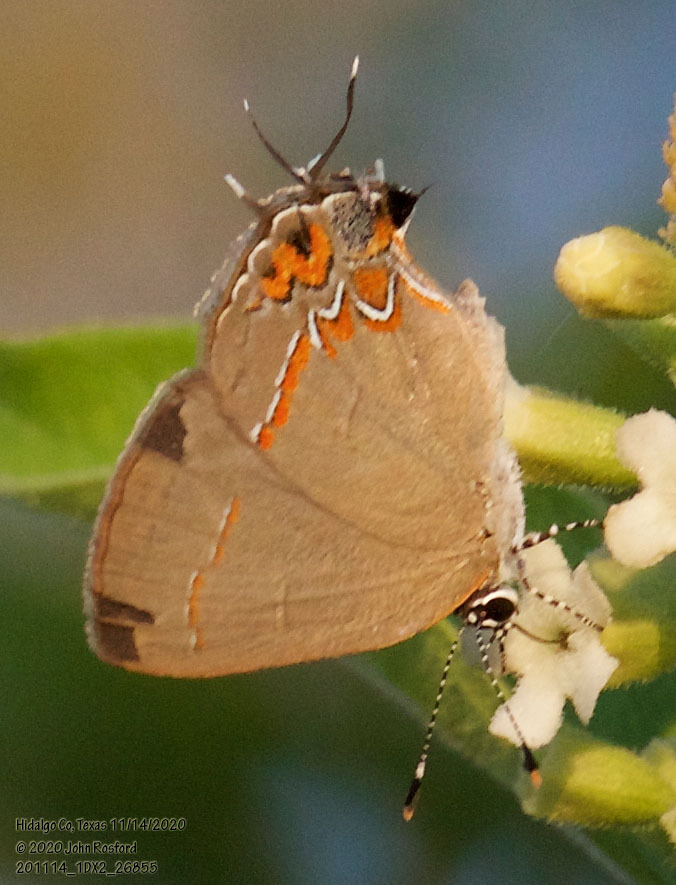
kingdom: Animalia
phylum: Arthropoda
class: Insecta
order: Lepidoptera
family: Lycaenidae
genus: Calycopis
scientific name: Calycopis isobeon
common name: Dusky-blue groundstreak
